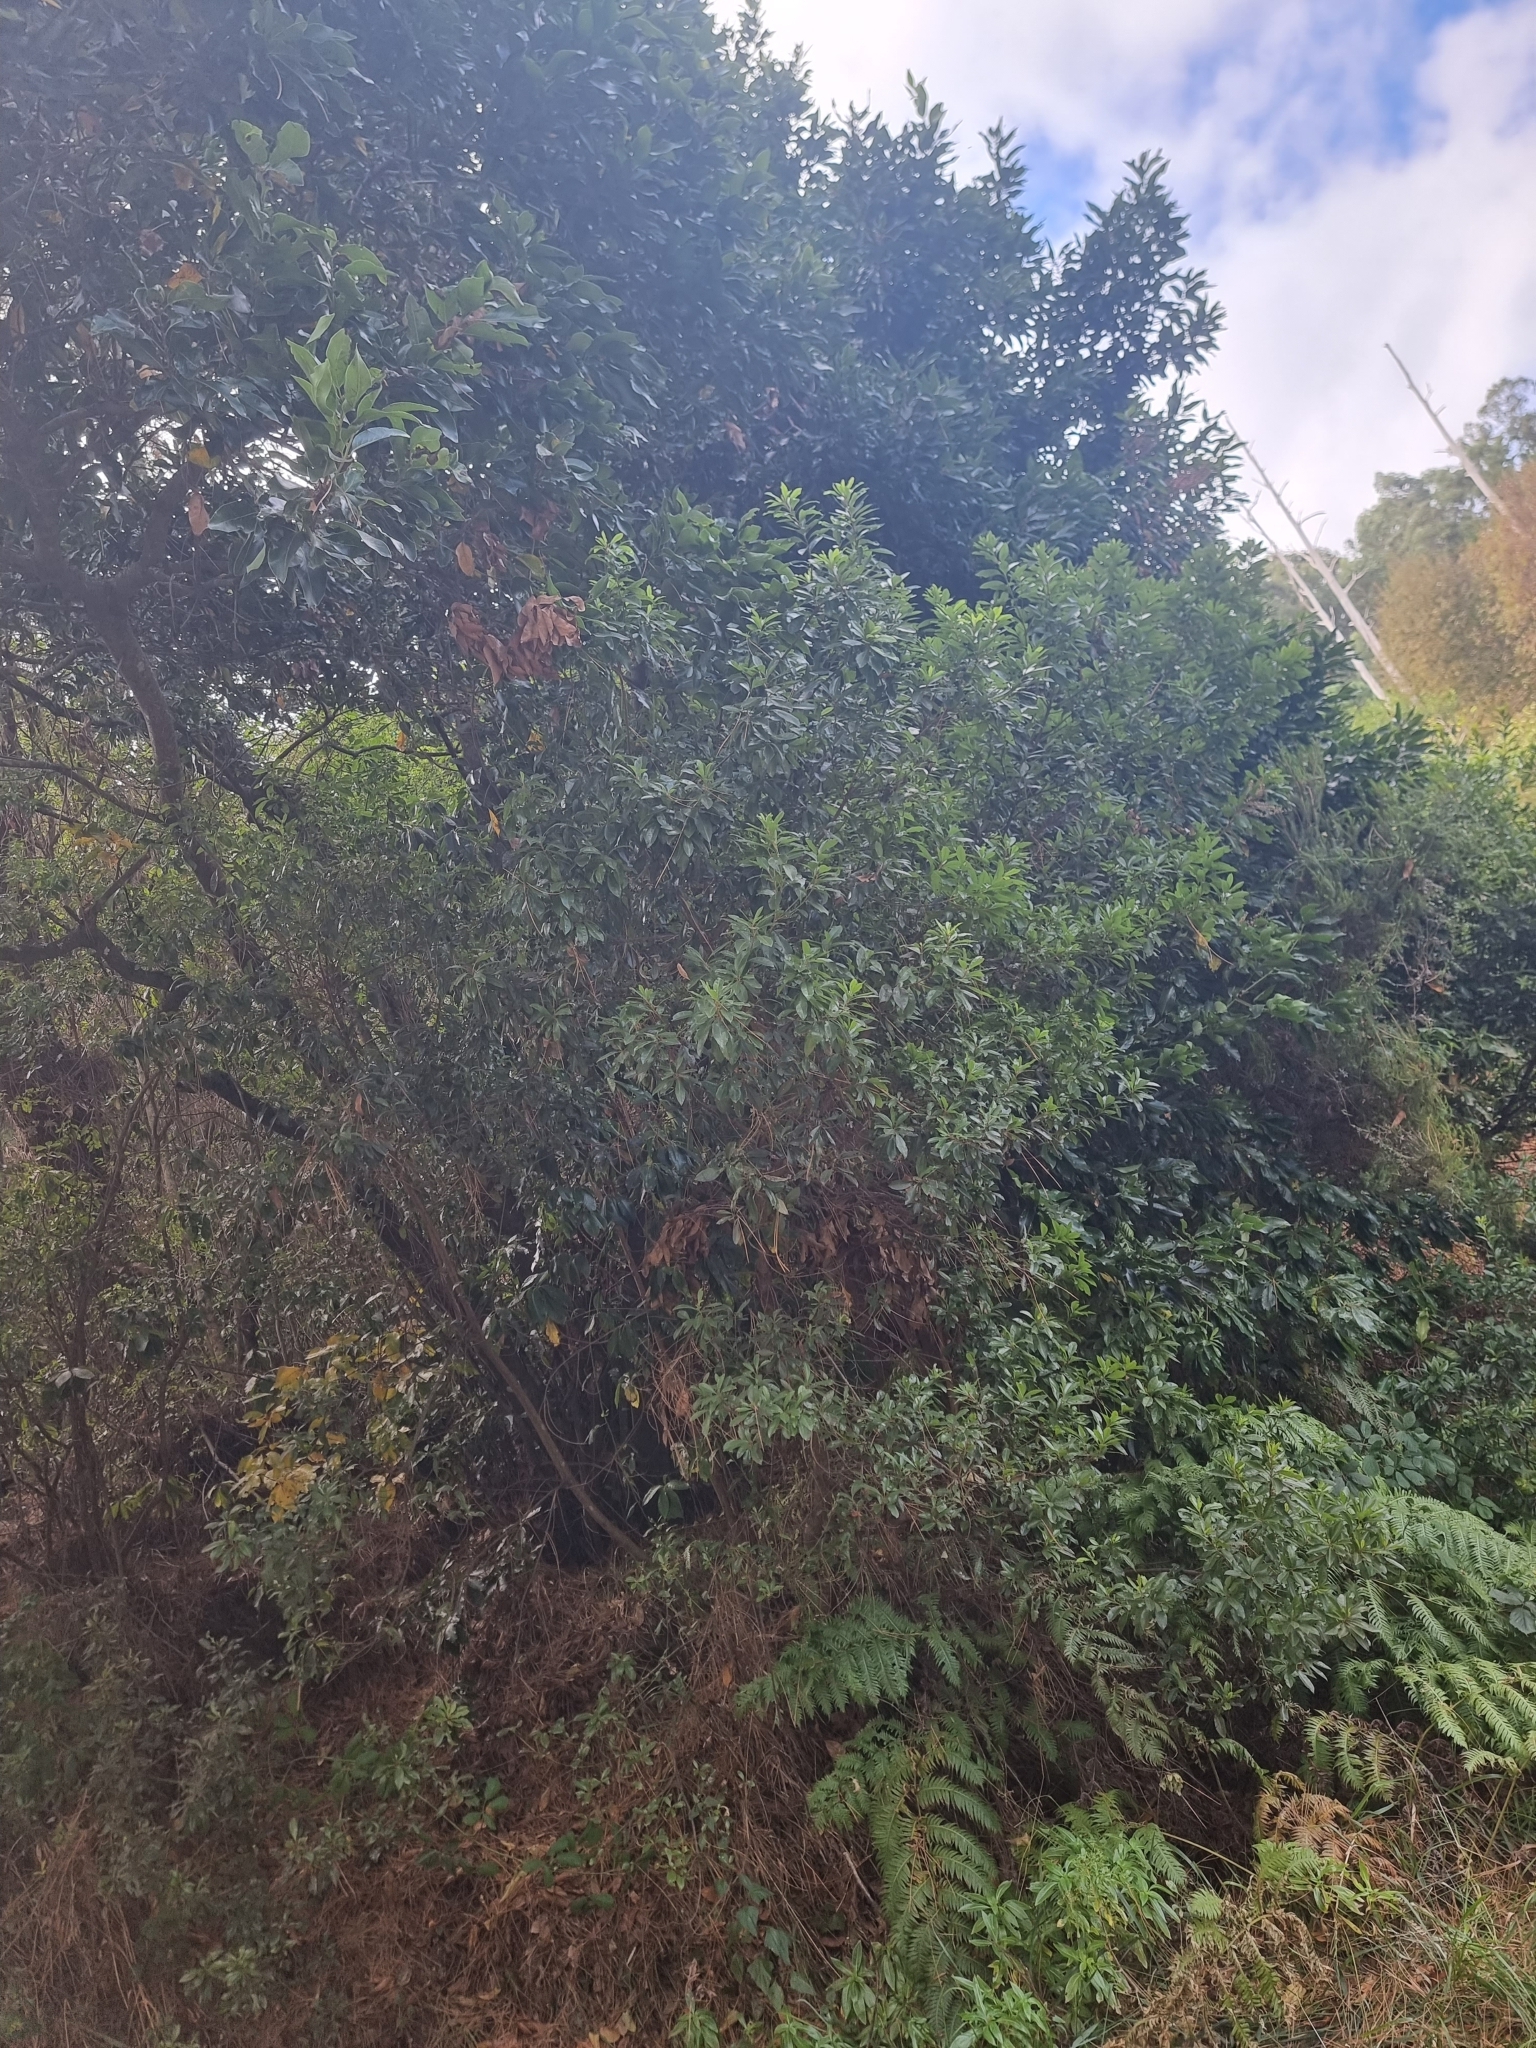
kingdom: Plantae
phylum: Tracheophyta
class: Magnoliopsida
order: Fagales
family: Myricaceae
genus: Morella
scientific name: Morella faya
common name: Firetree
